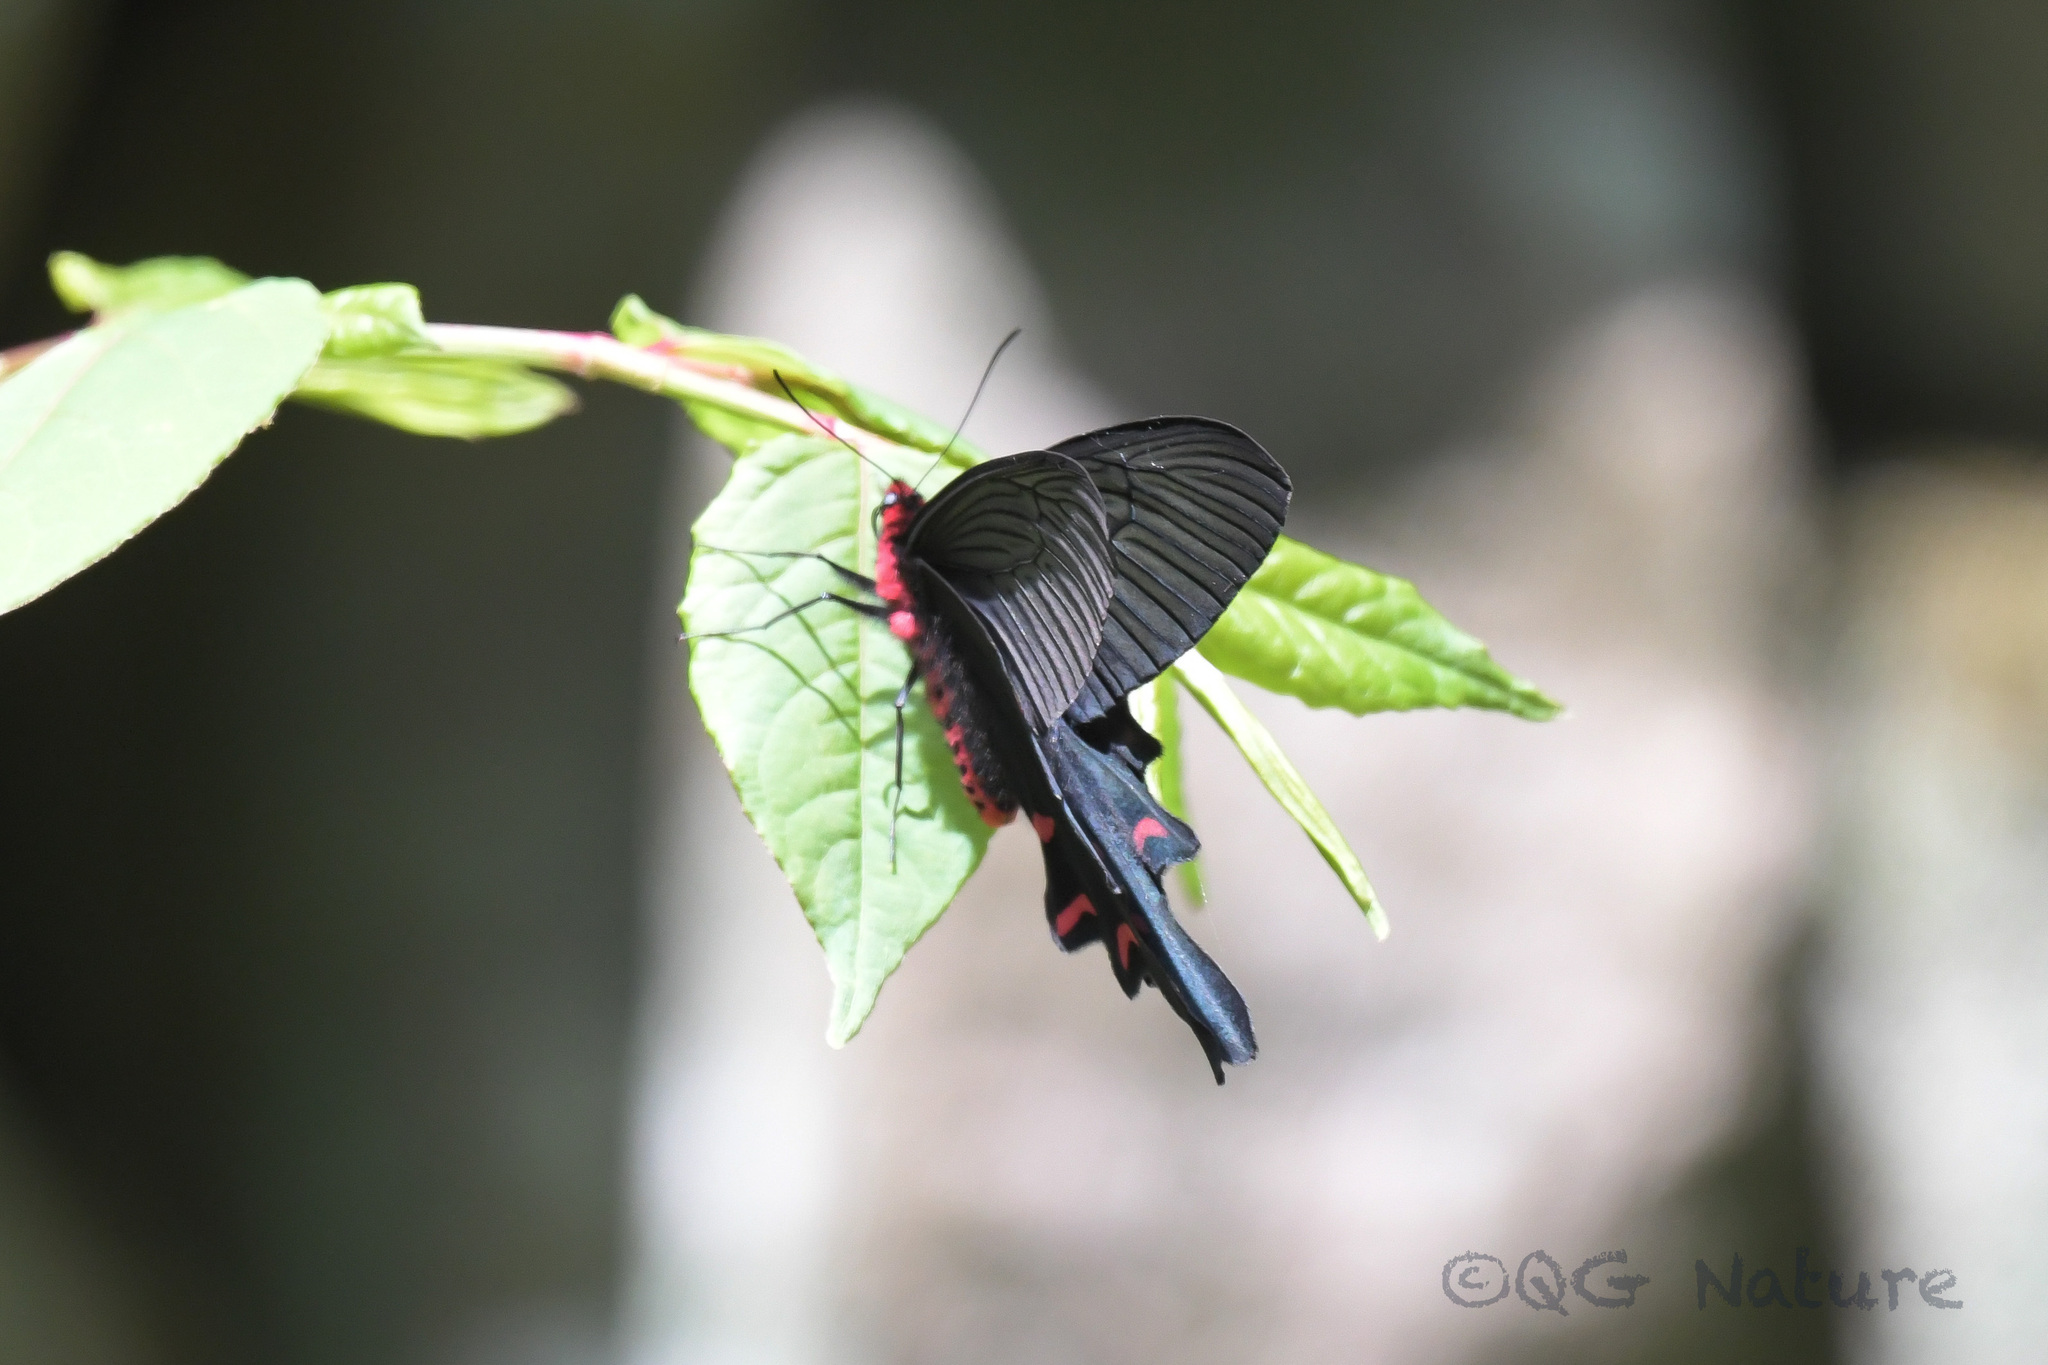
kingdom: Animalia
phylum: Arthropoda
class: Insecta
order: Lepidoptera
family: Papilionidae
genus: Byasa
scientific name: Byasa mencius
